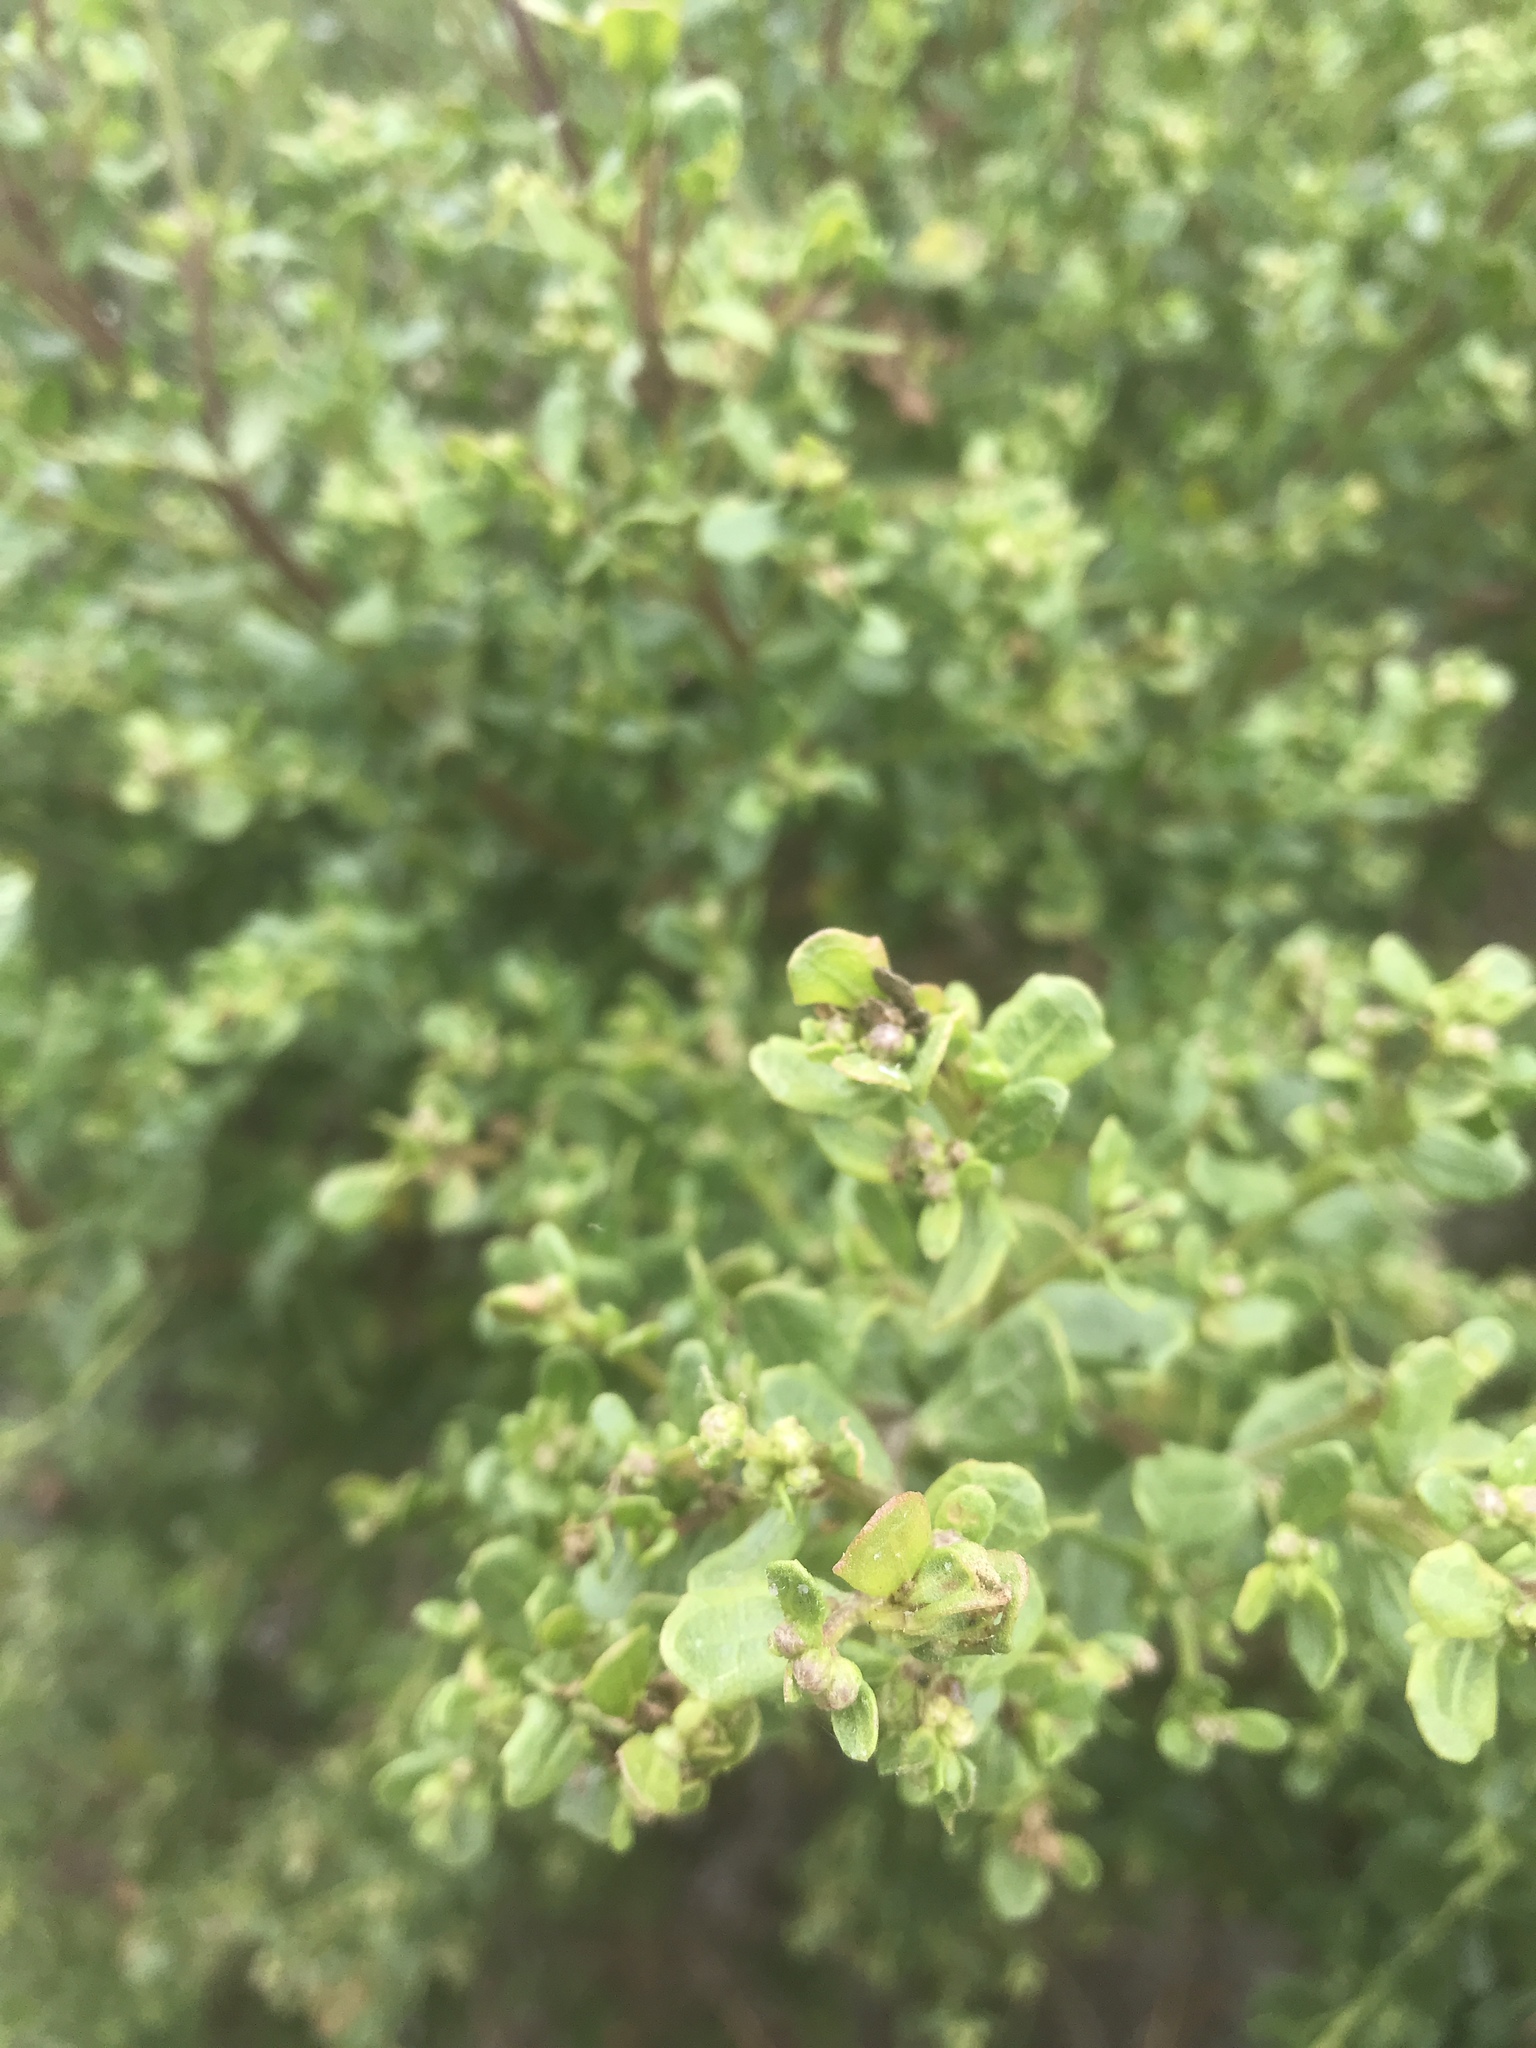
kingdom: Plantae
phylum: Tracheophyta
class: Magnoliopsida
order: Asterales
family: Asteraceae
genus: Baccharis
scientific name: Baccharis pilularis
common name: Coyotebrush
